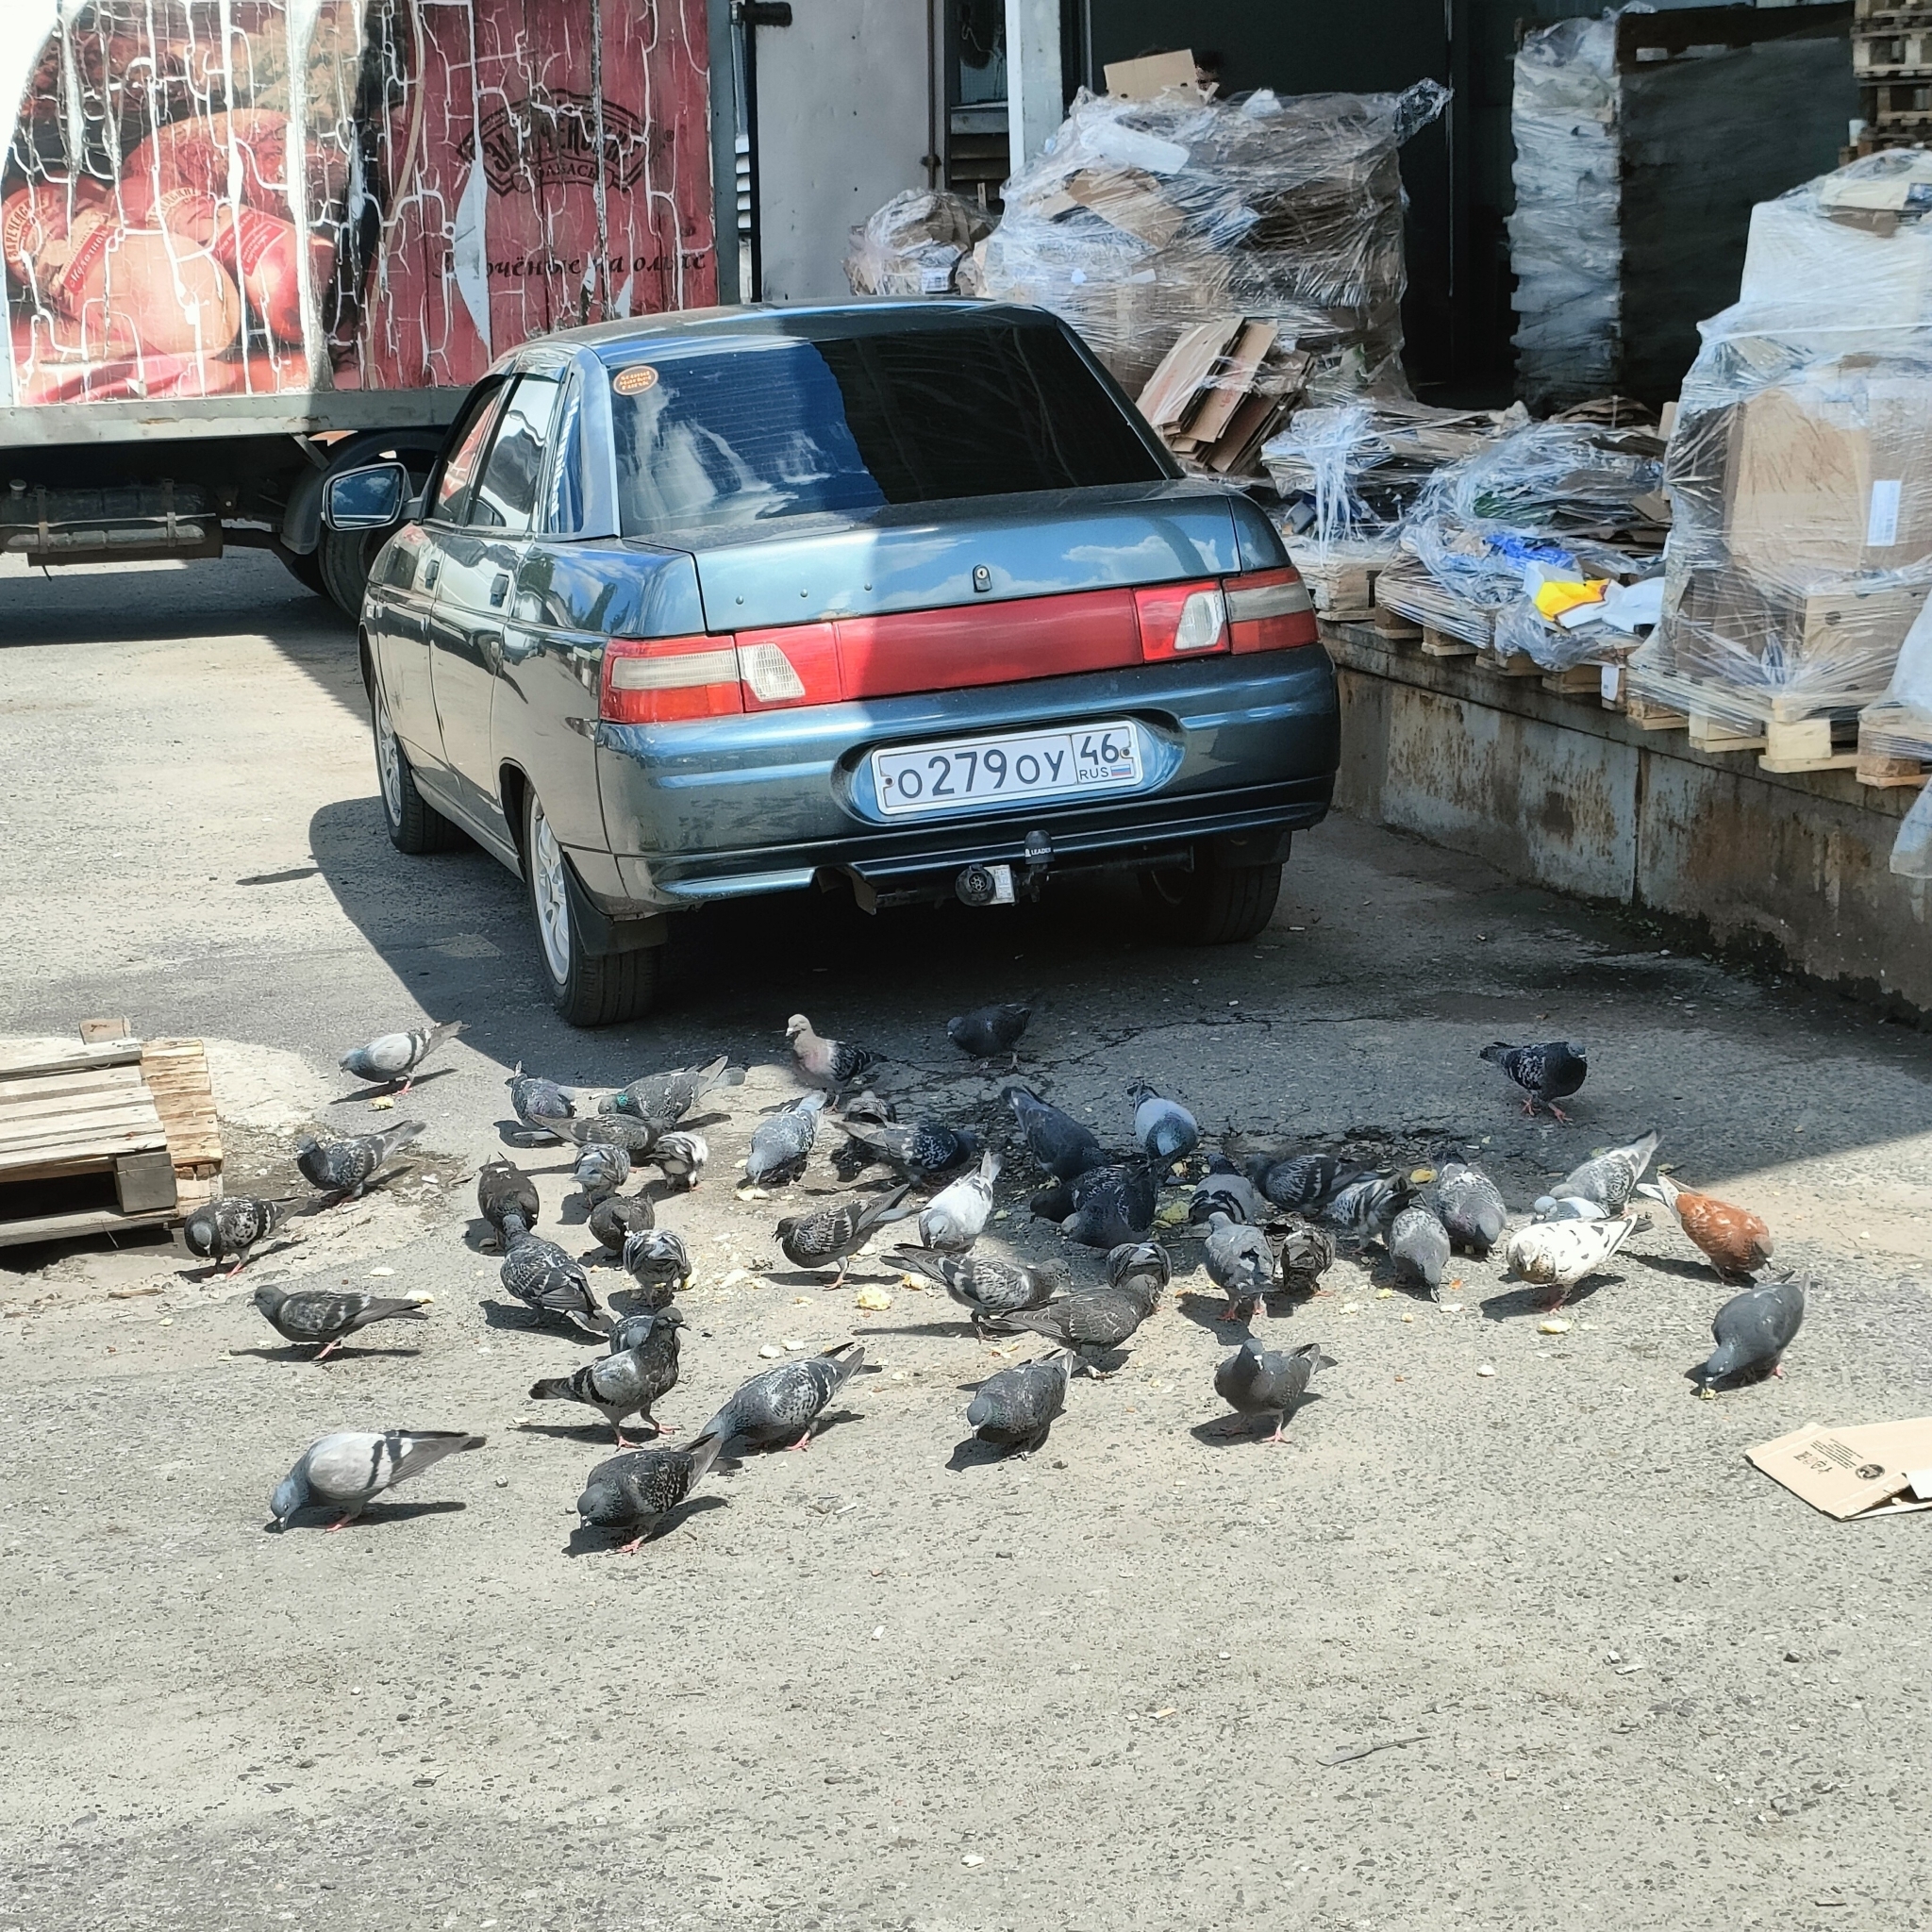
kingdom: Animalia
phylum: Chordata
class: Aves
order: Columbiformes
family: Columbidae
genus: Columba
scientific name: Columba livia
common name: Rock pigeon
